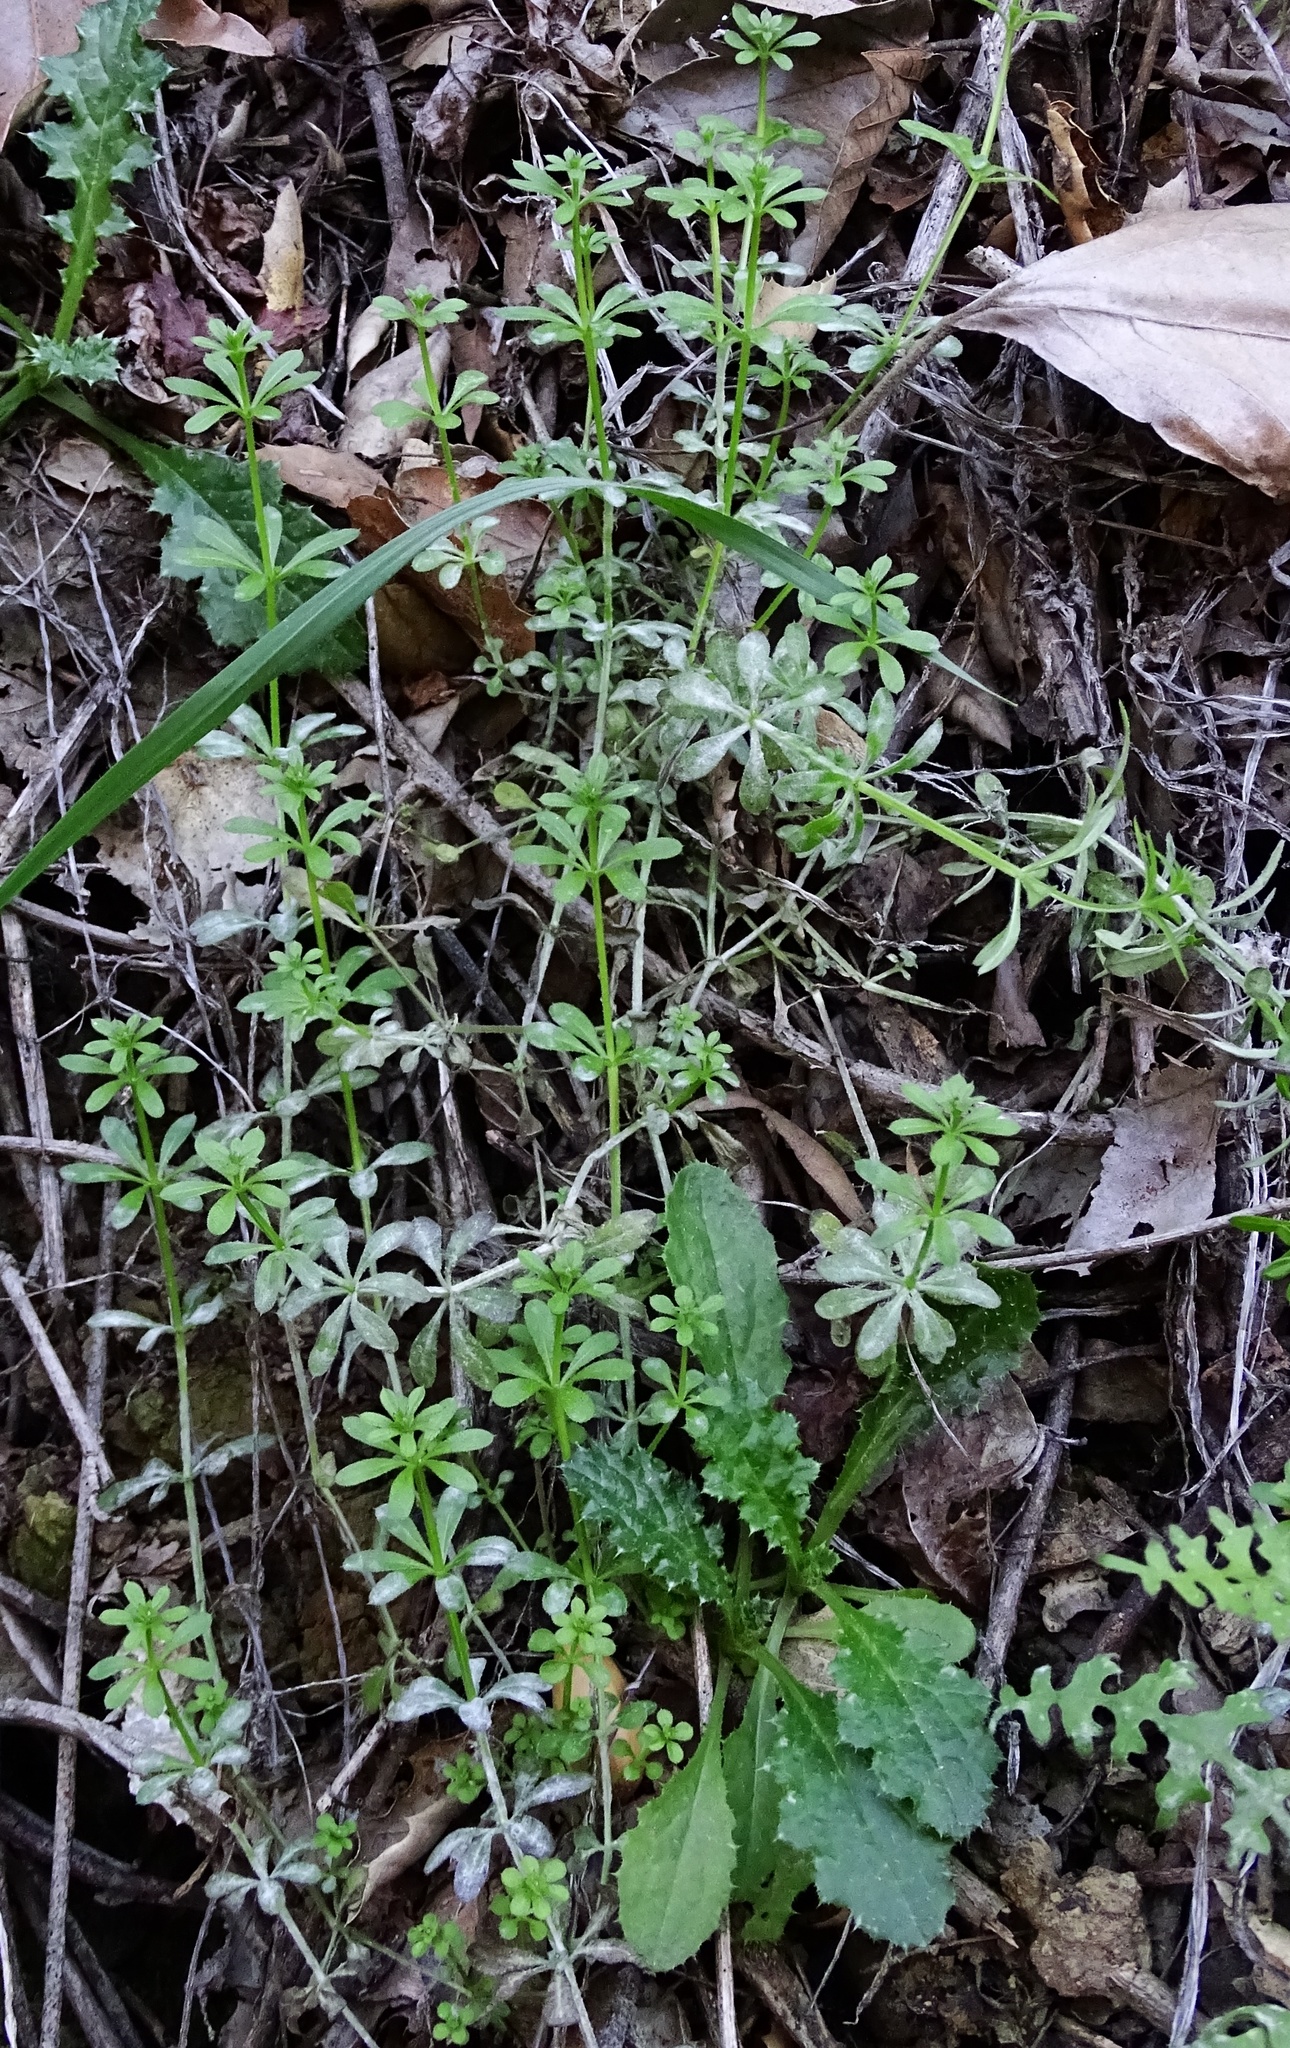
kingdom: Plantae
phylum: Tracheophyta
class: Magnoliopsida
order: Gentianales
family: Rubiaceae
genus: Galium
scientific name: Galium aparine
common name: Cleavers
